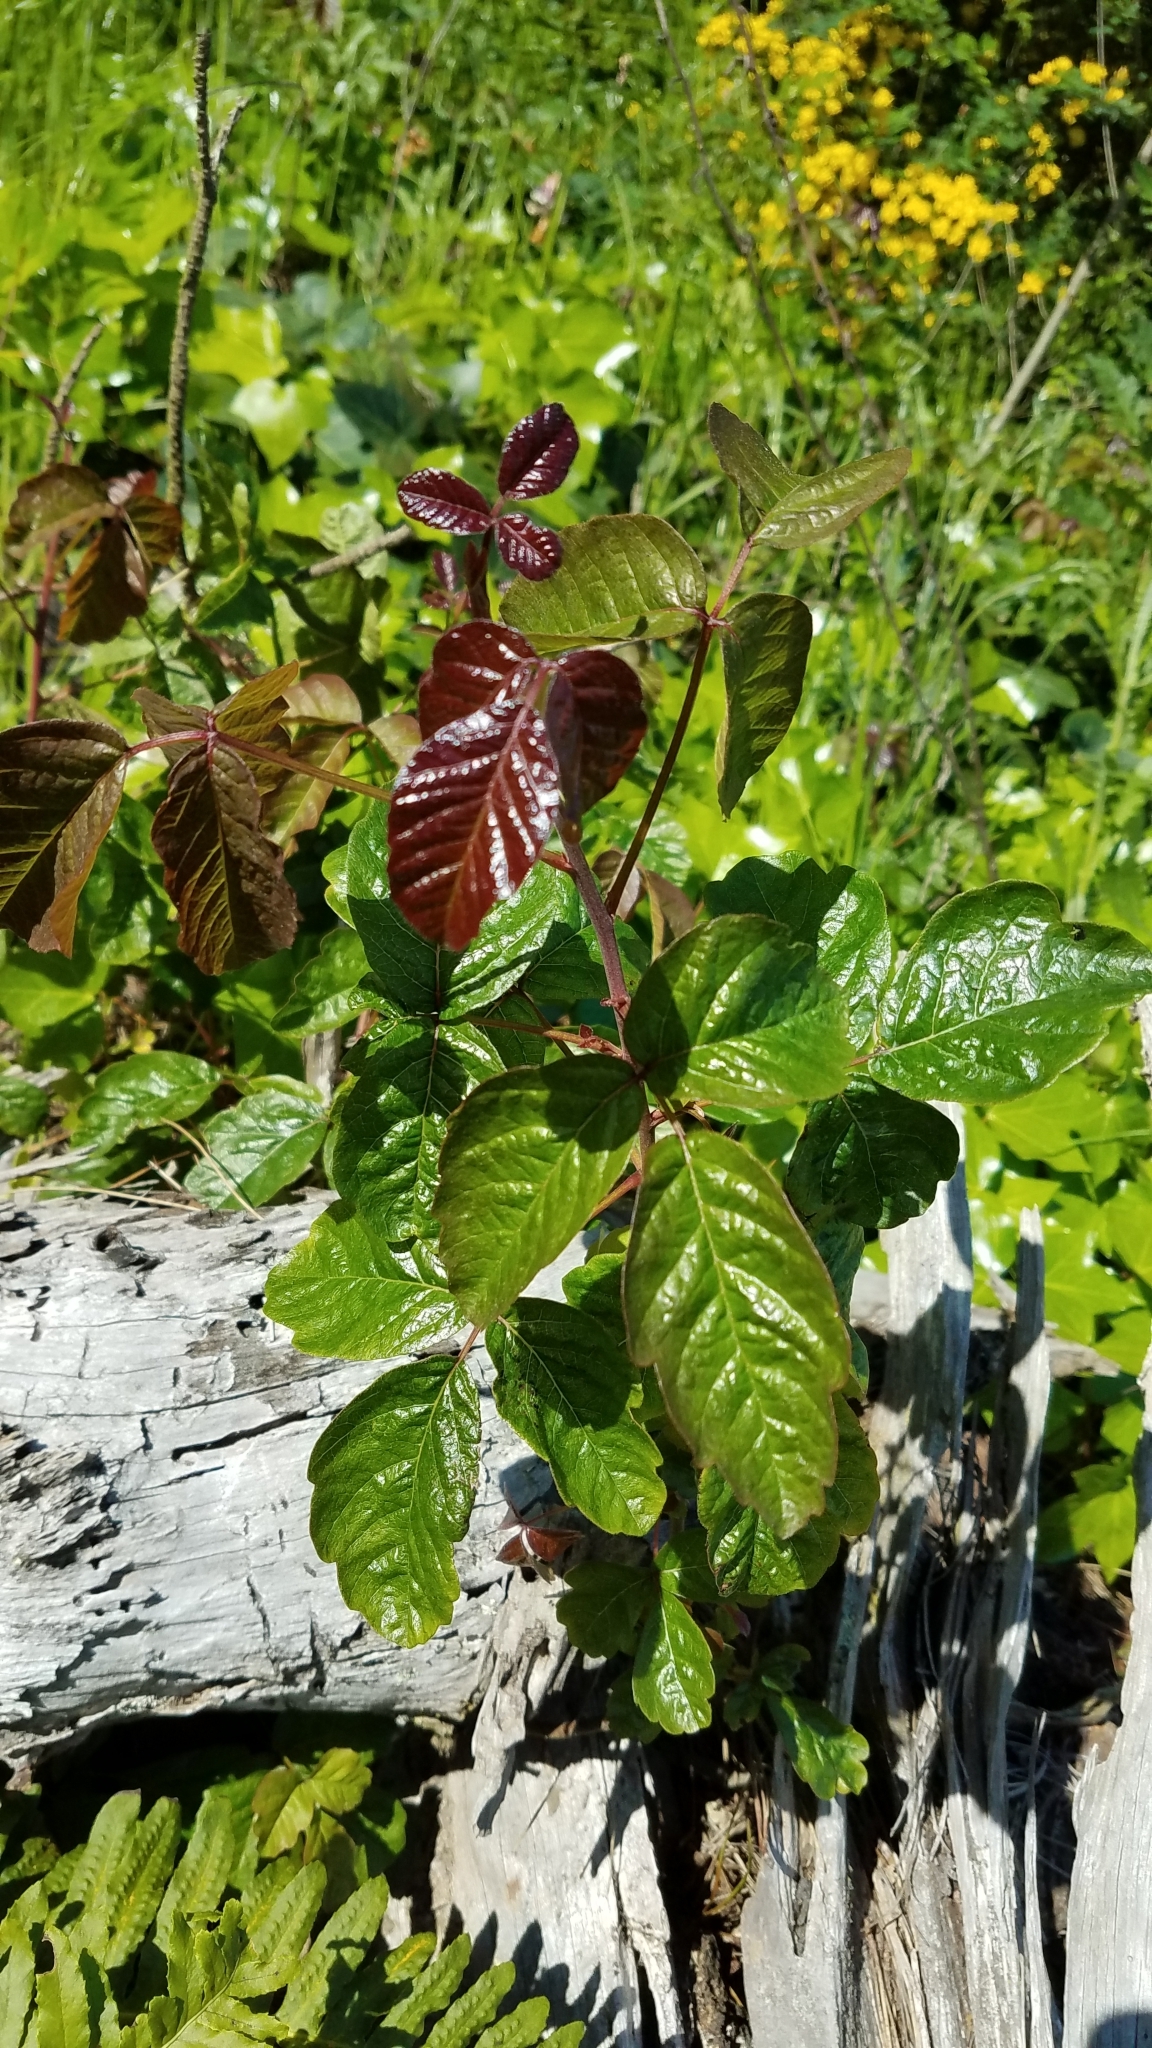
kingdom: Plantae
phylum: Tracheophyta
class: Magnoliopsida
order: Sapindales
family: Anacardiaceae
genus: Toxicodendron
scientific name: Toxicodendron diversilobum
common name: Pacific poison-oak
